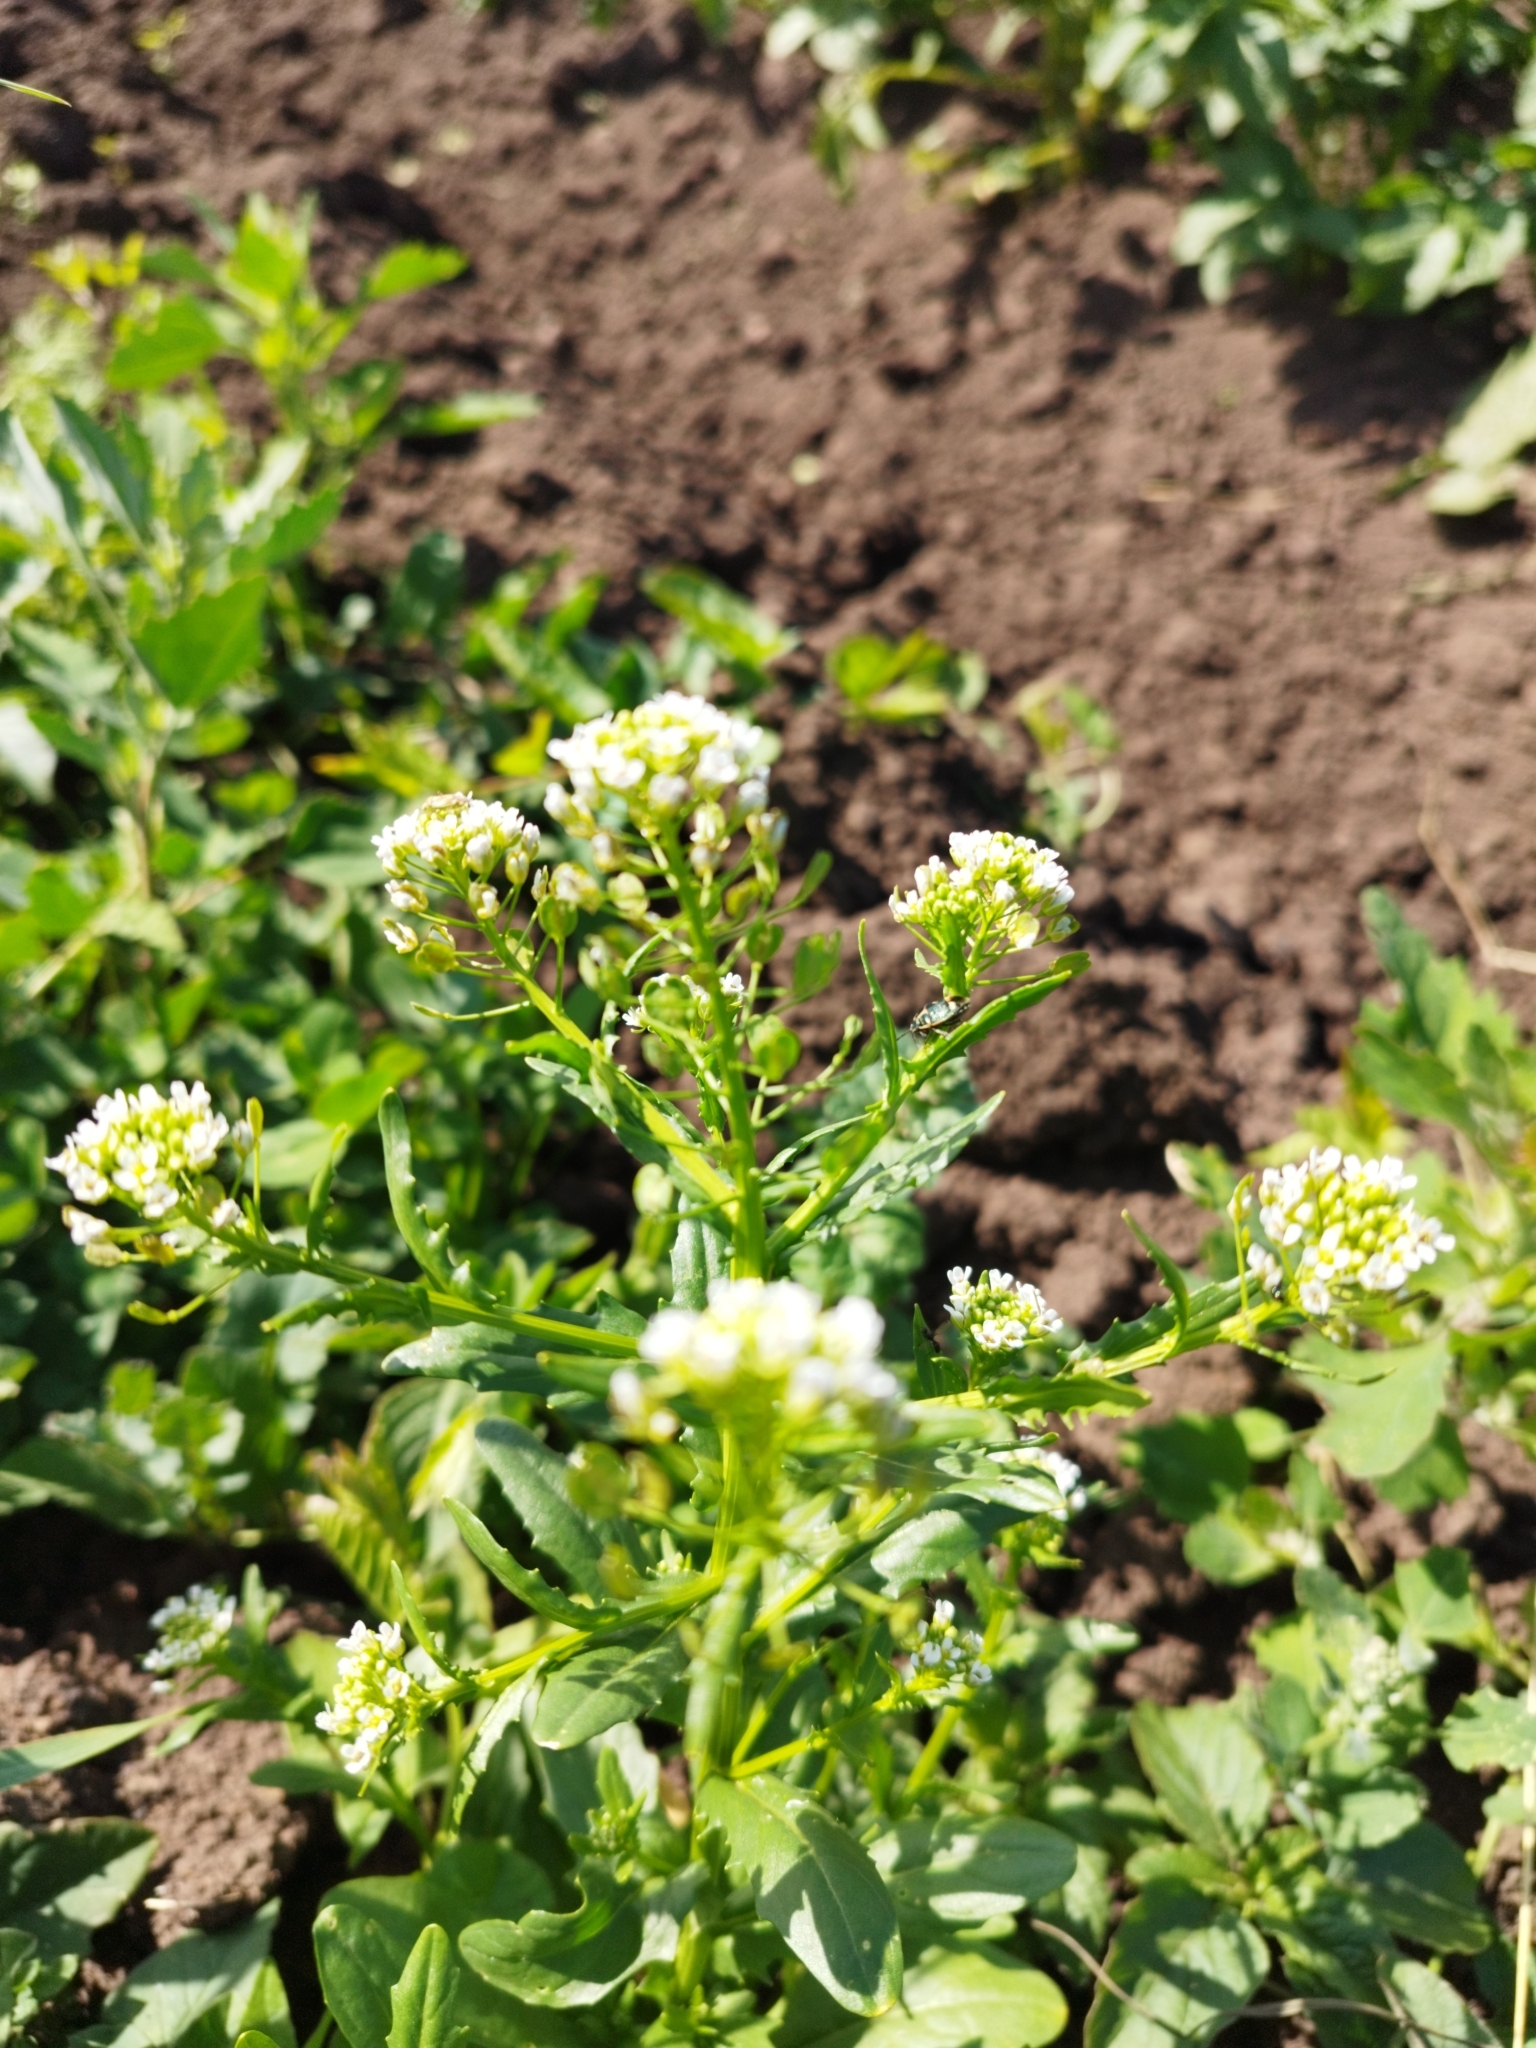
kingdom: Plantae
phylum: Tracheophyta
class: Magnoliopsida
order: Brassicales
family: Brassicaceae
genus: Thlaspi
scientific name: Thlaspi arvense
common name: Field pennycress
